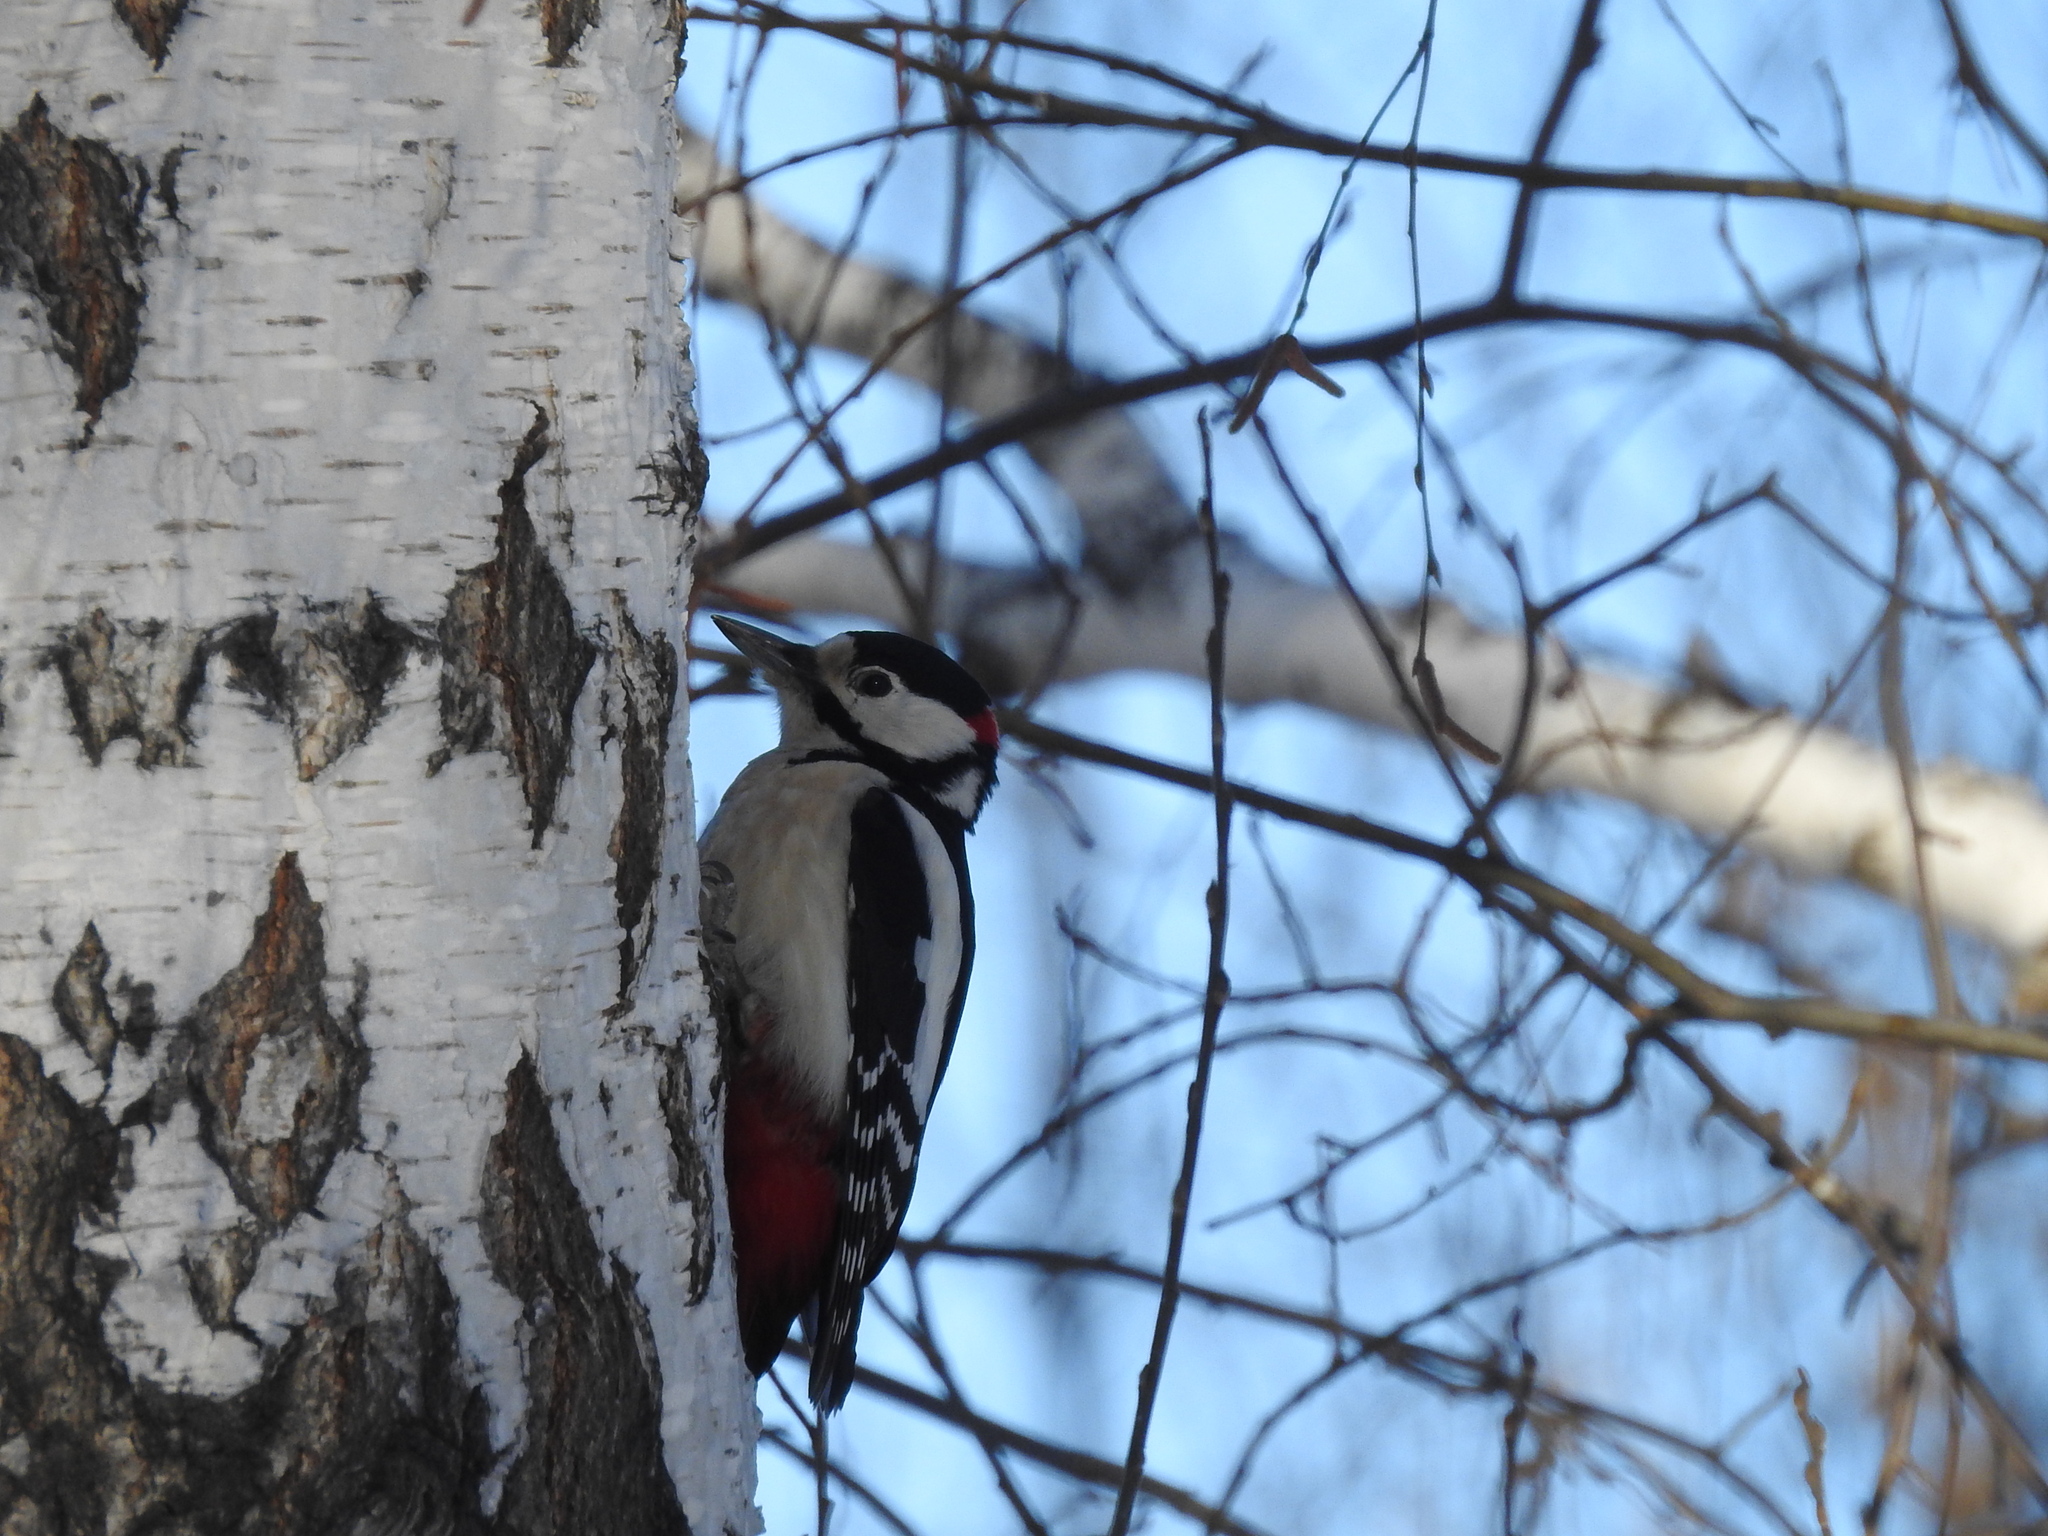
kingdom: Animalia
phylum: Chordata
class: Aves
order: Piciformes
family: Picidae
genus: Dendrocopos
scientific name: Dendrocopos major
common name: Great spotted woodpecker
